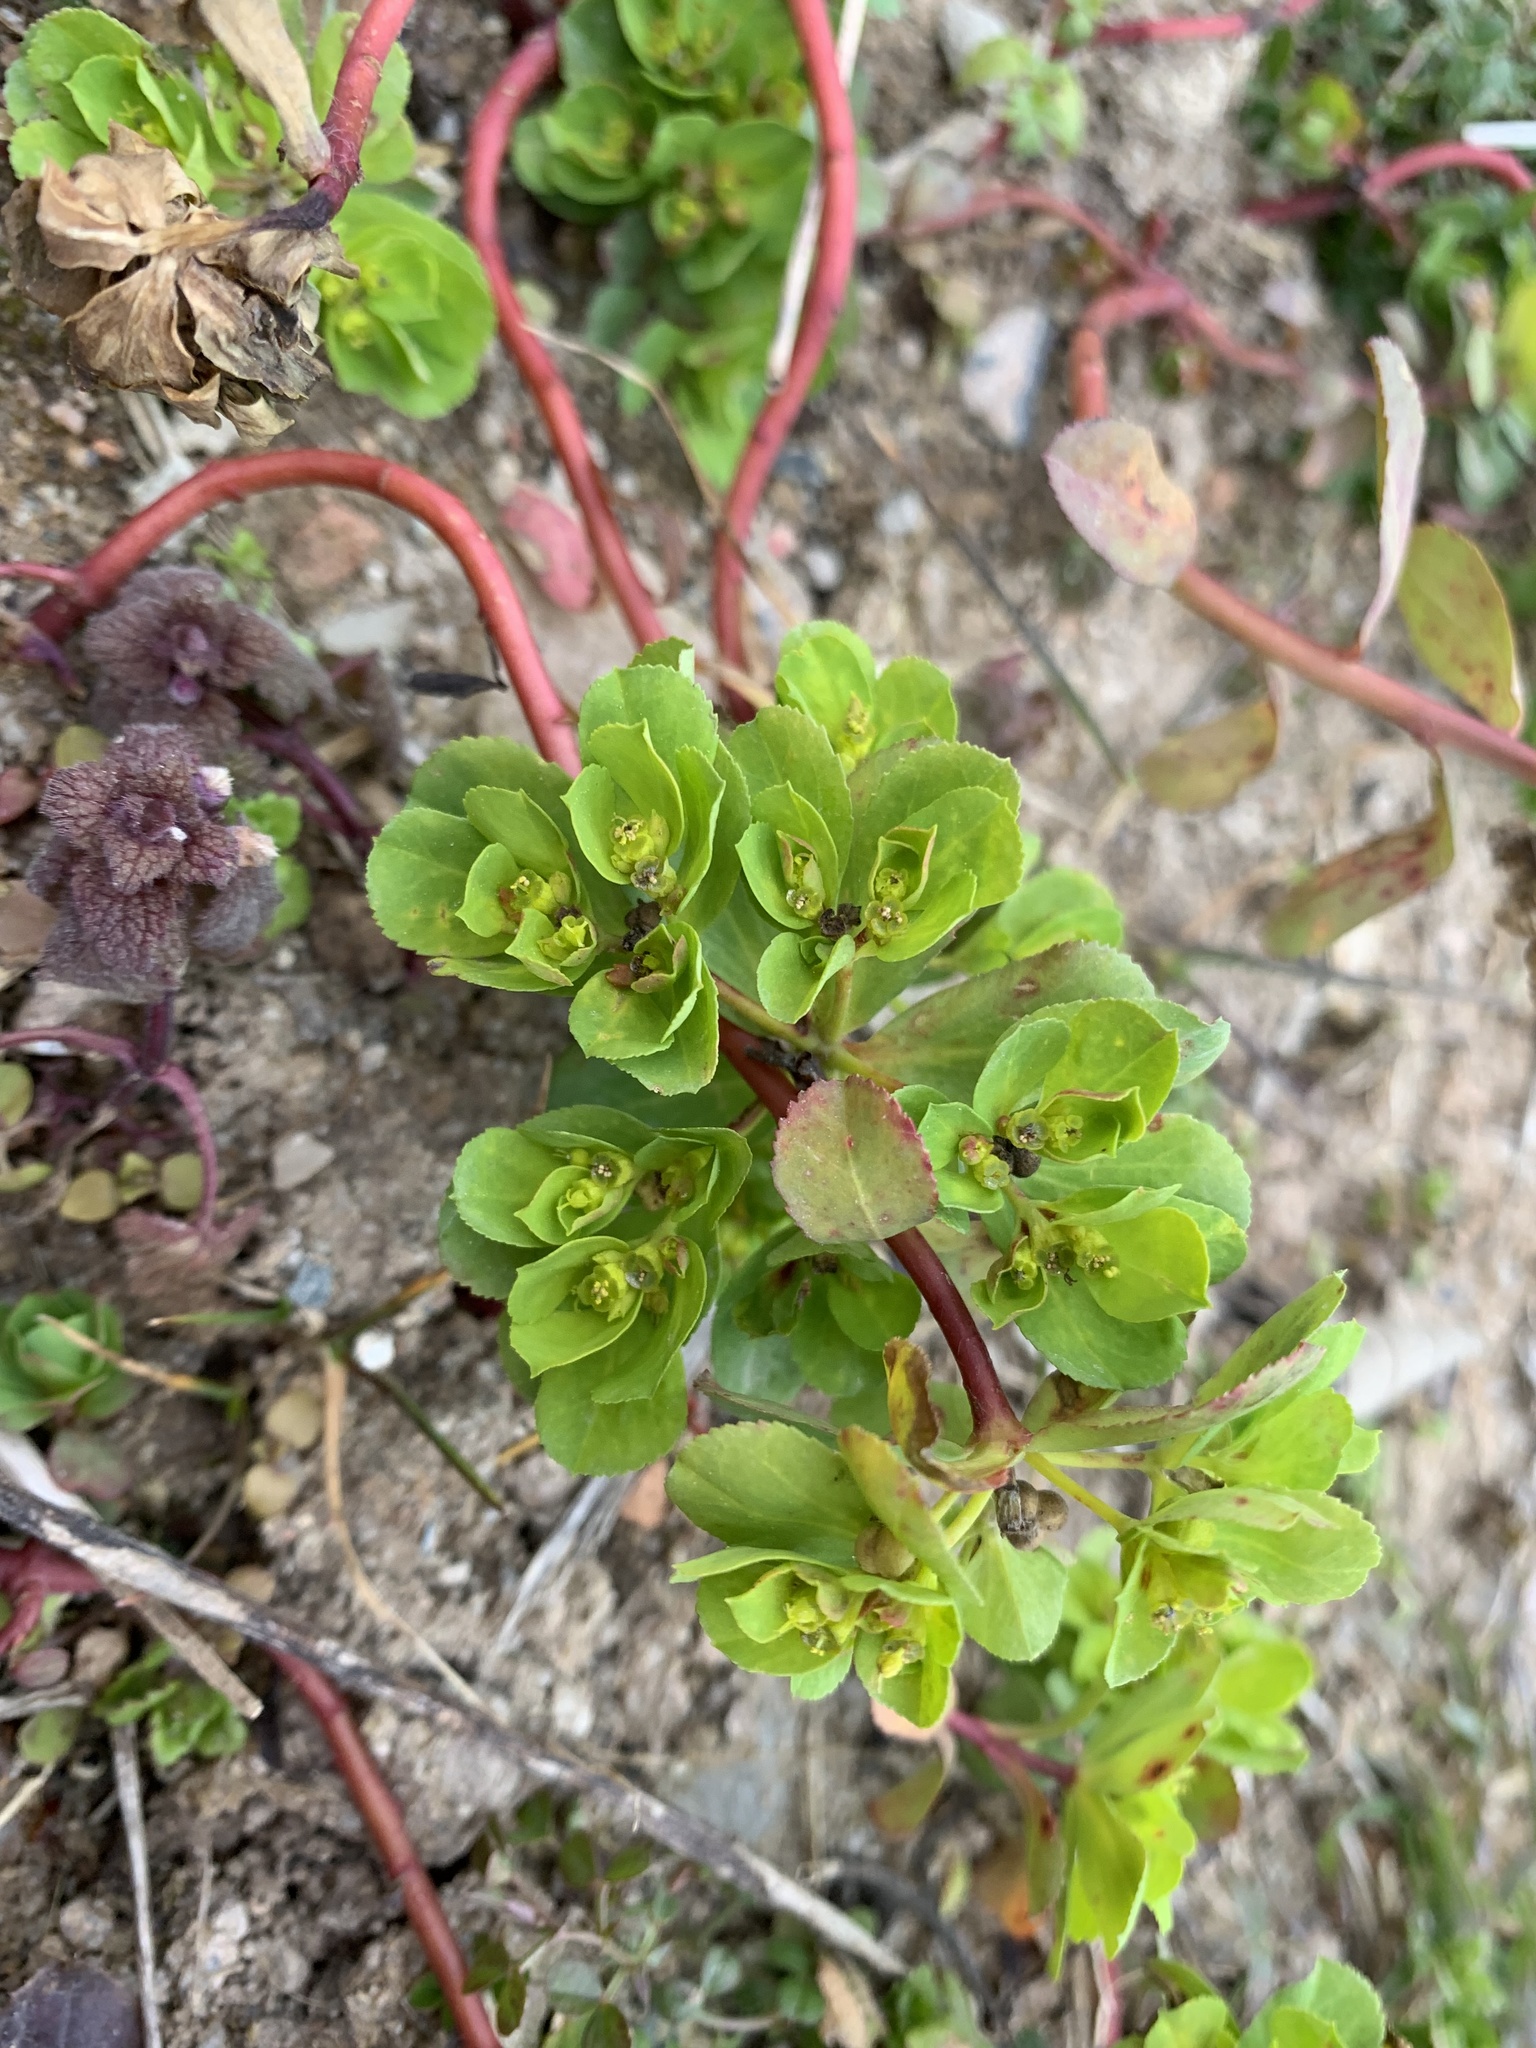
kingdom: Plantae
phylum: Tracheophyta
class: Magnoliopsida
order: Malpighiales
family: Euphorbiaceae
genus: Euphorbia
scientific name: Euphorbia helioscopia
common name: Sun spurge
